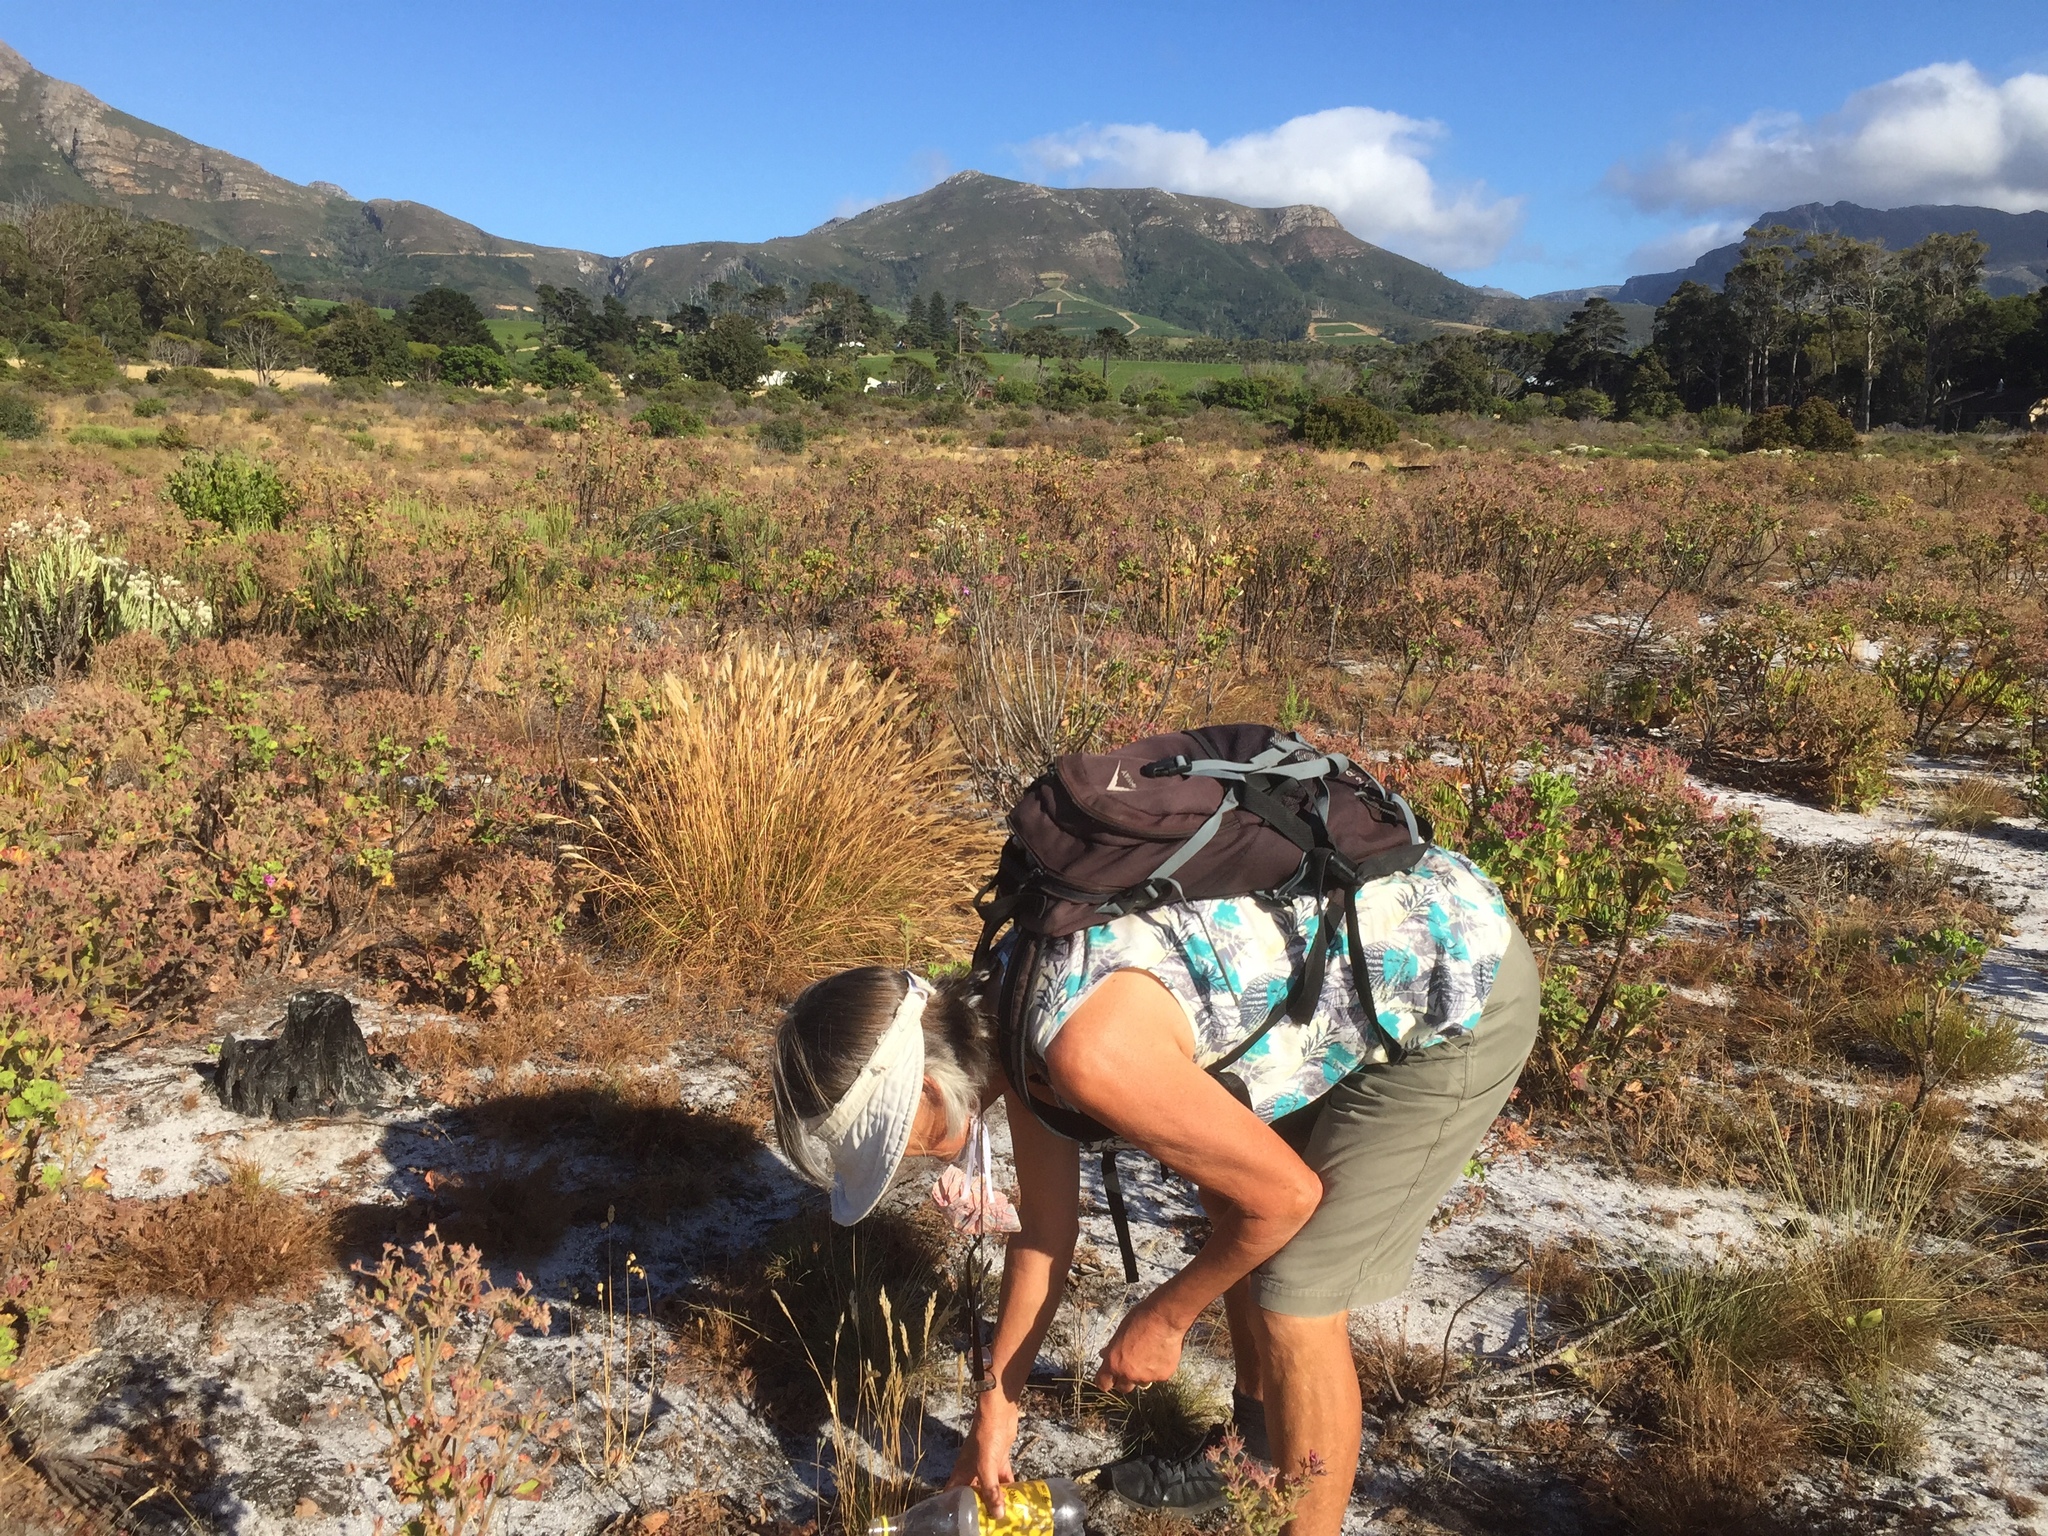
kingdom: Plantae
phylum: Tracheophyta
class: Magnoliopsida
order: Proteales
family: Proteaceae
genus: Leucospermum
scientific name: Leucospermum conocarpodendron
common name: Tree pincushion
